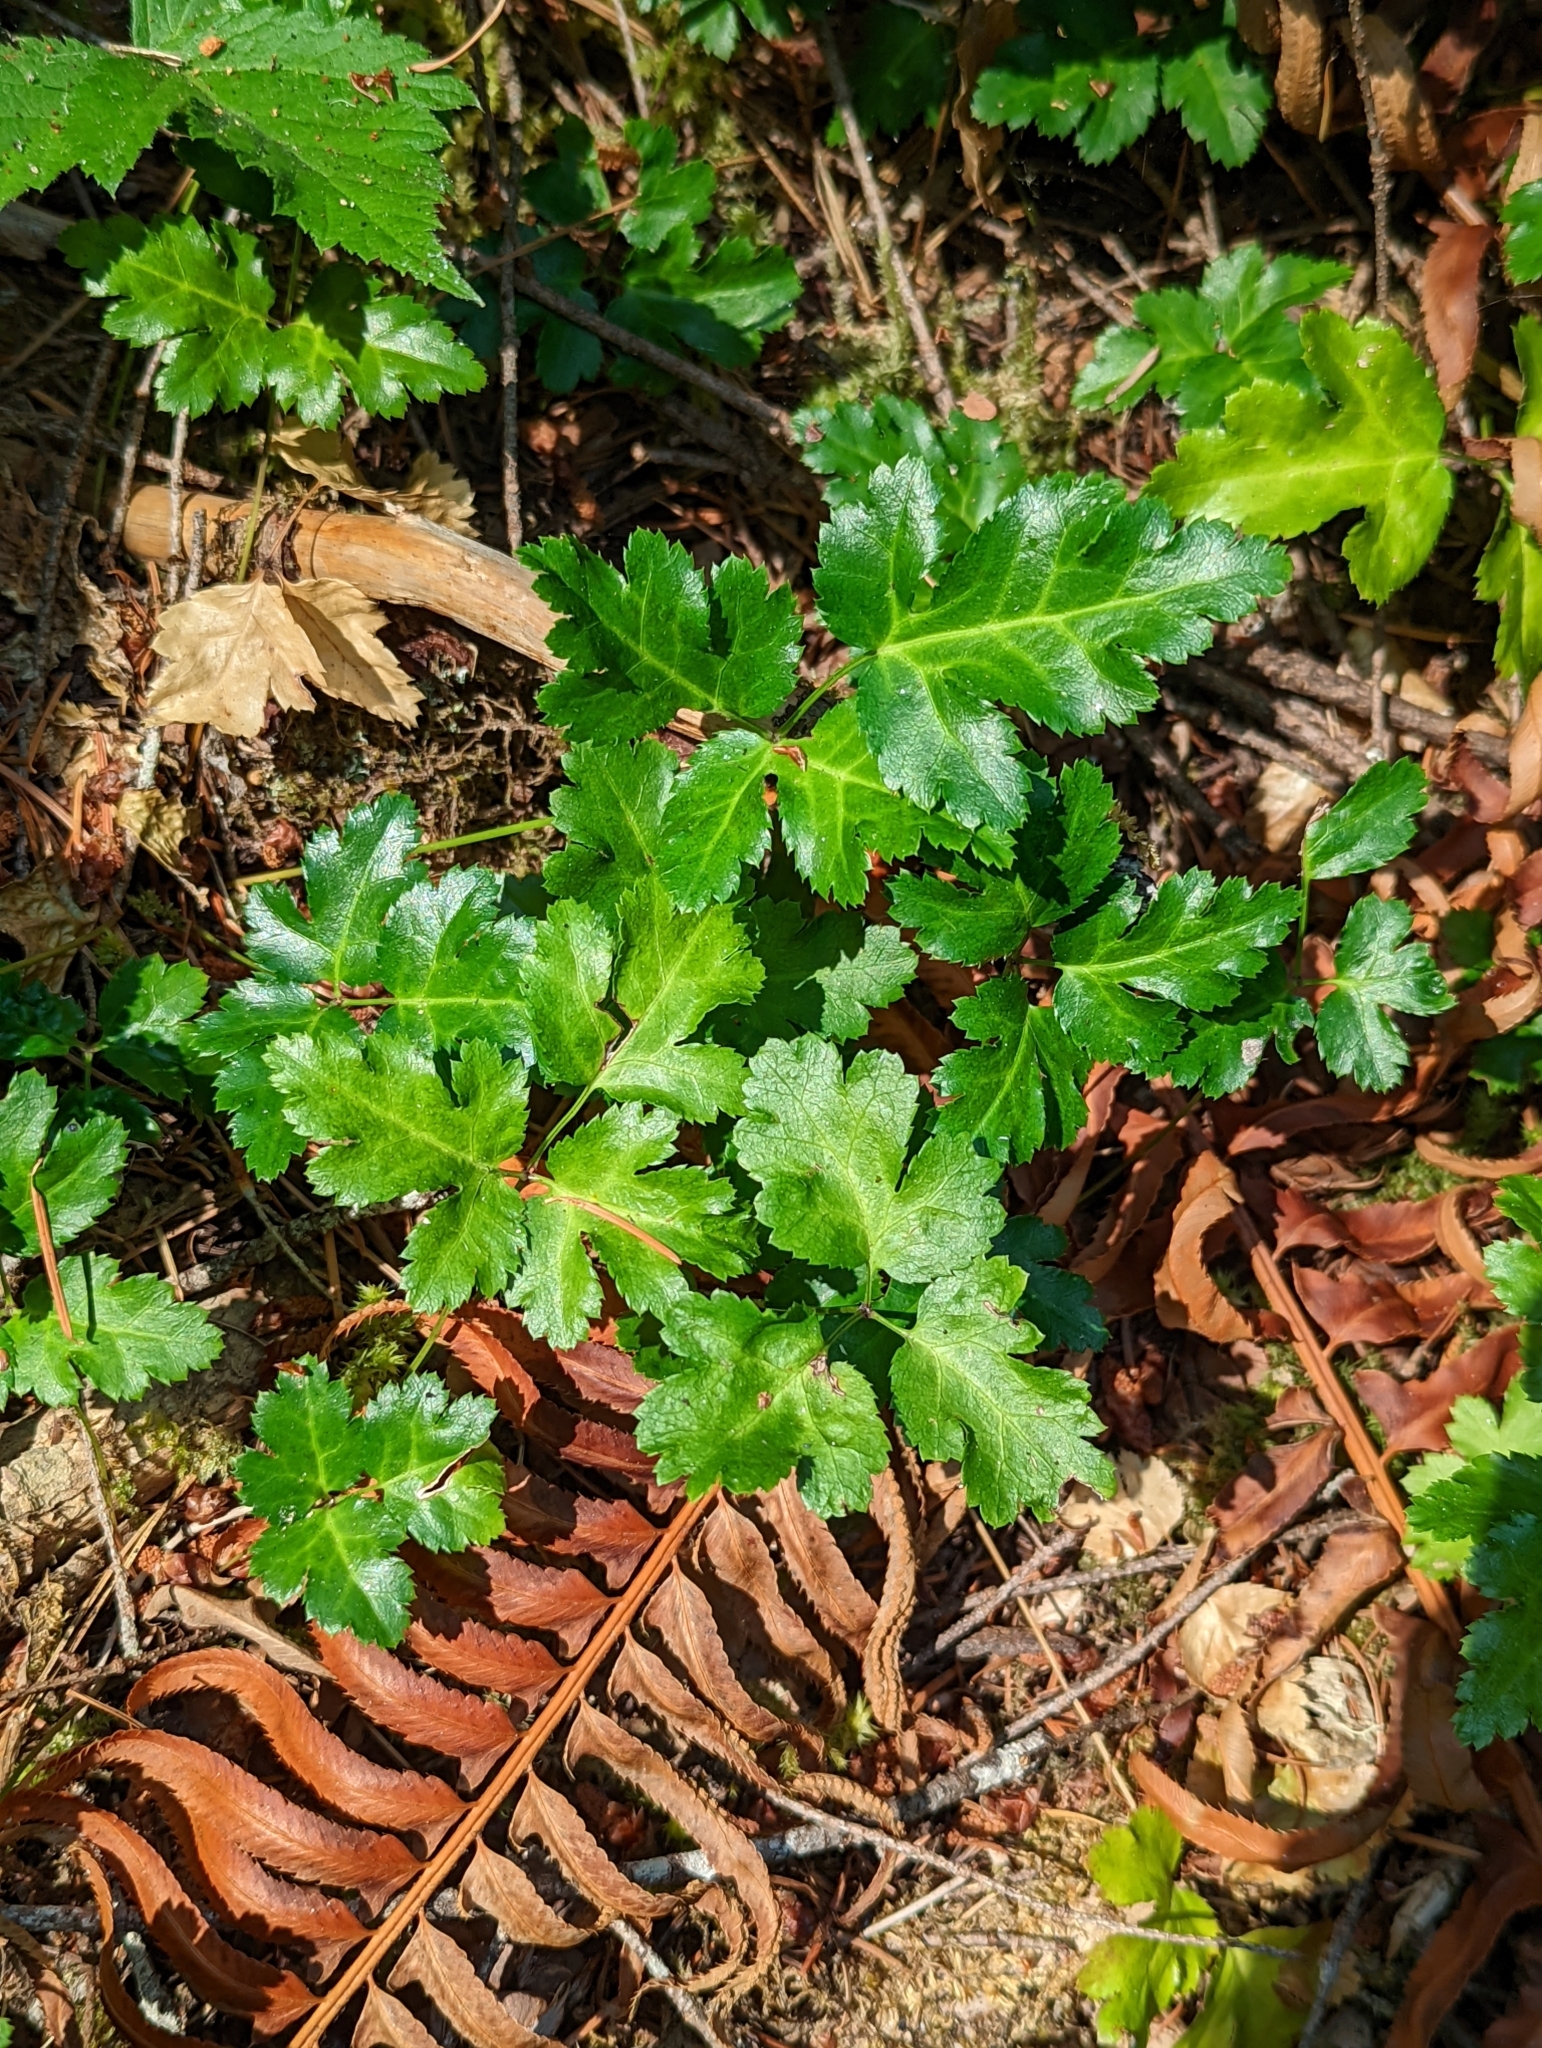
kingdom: Plantae
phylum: Tracheophyta
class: Magnoliopsida
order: Ranunculales
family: Ranunculaceae
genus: Coptis
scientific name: Coptis laciniata
